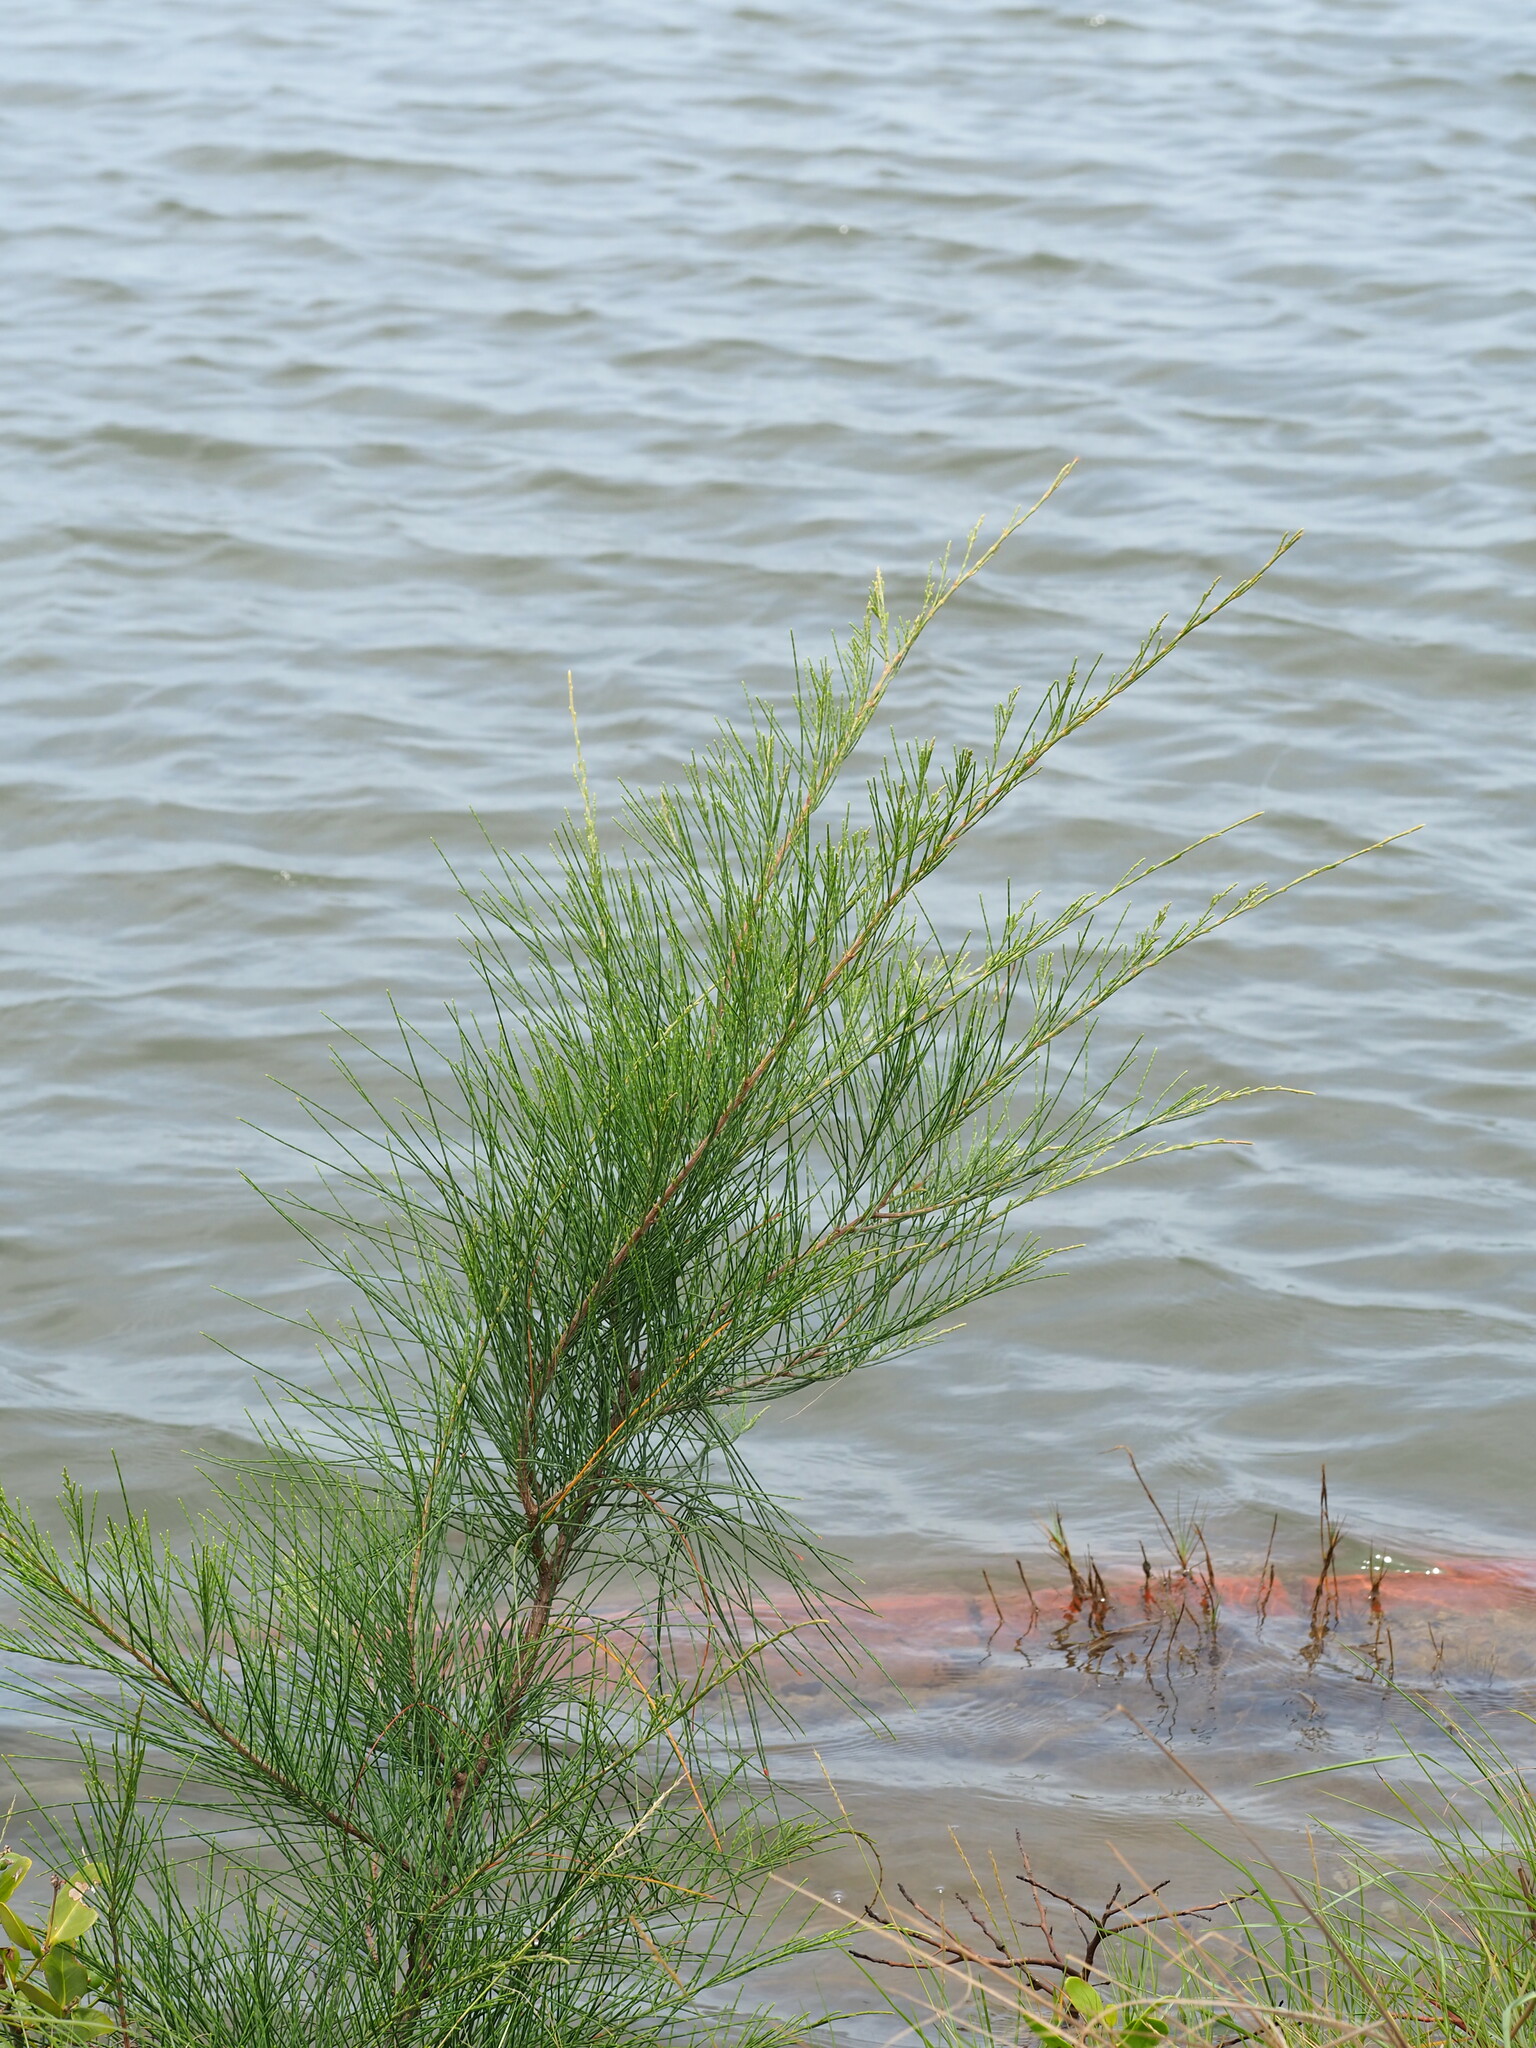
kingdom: Plantae
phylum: Tracheophyta
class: Magnoliopsida
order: Caryophyllales
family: Tamaricaceae
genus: Tamarix
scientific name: Tamarix aphylla
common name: Athel tamarisk
